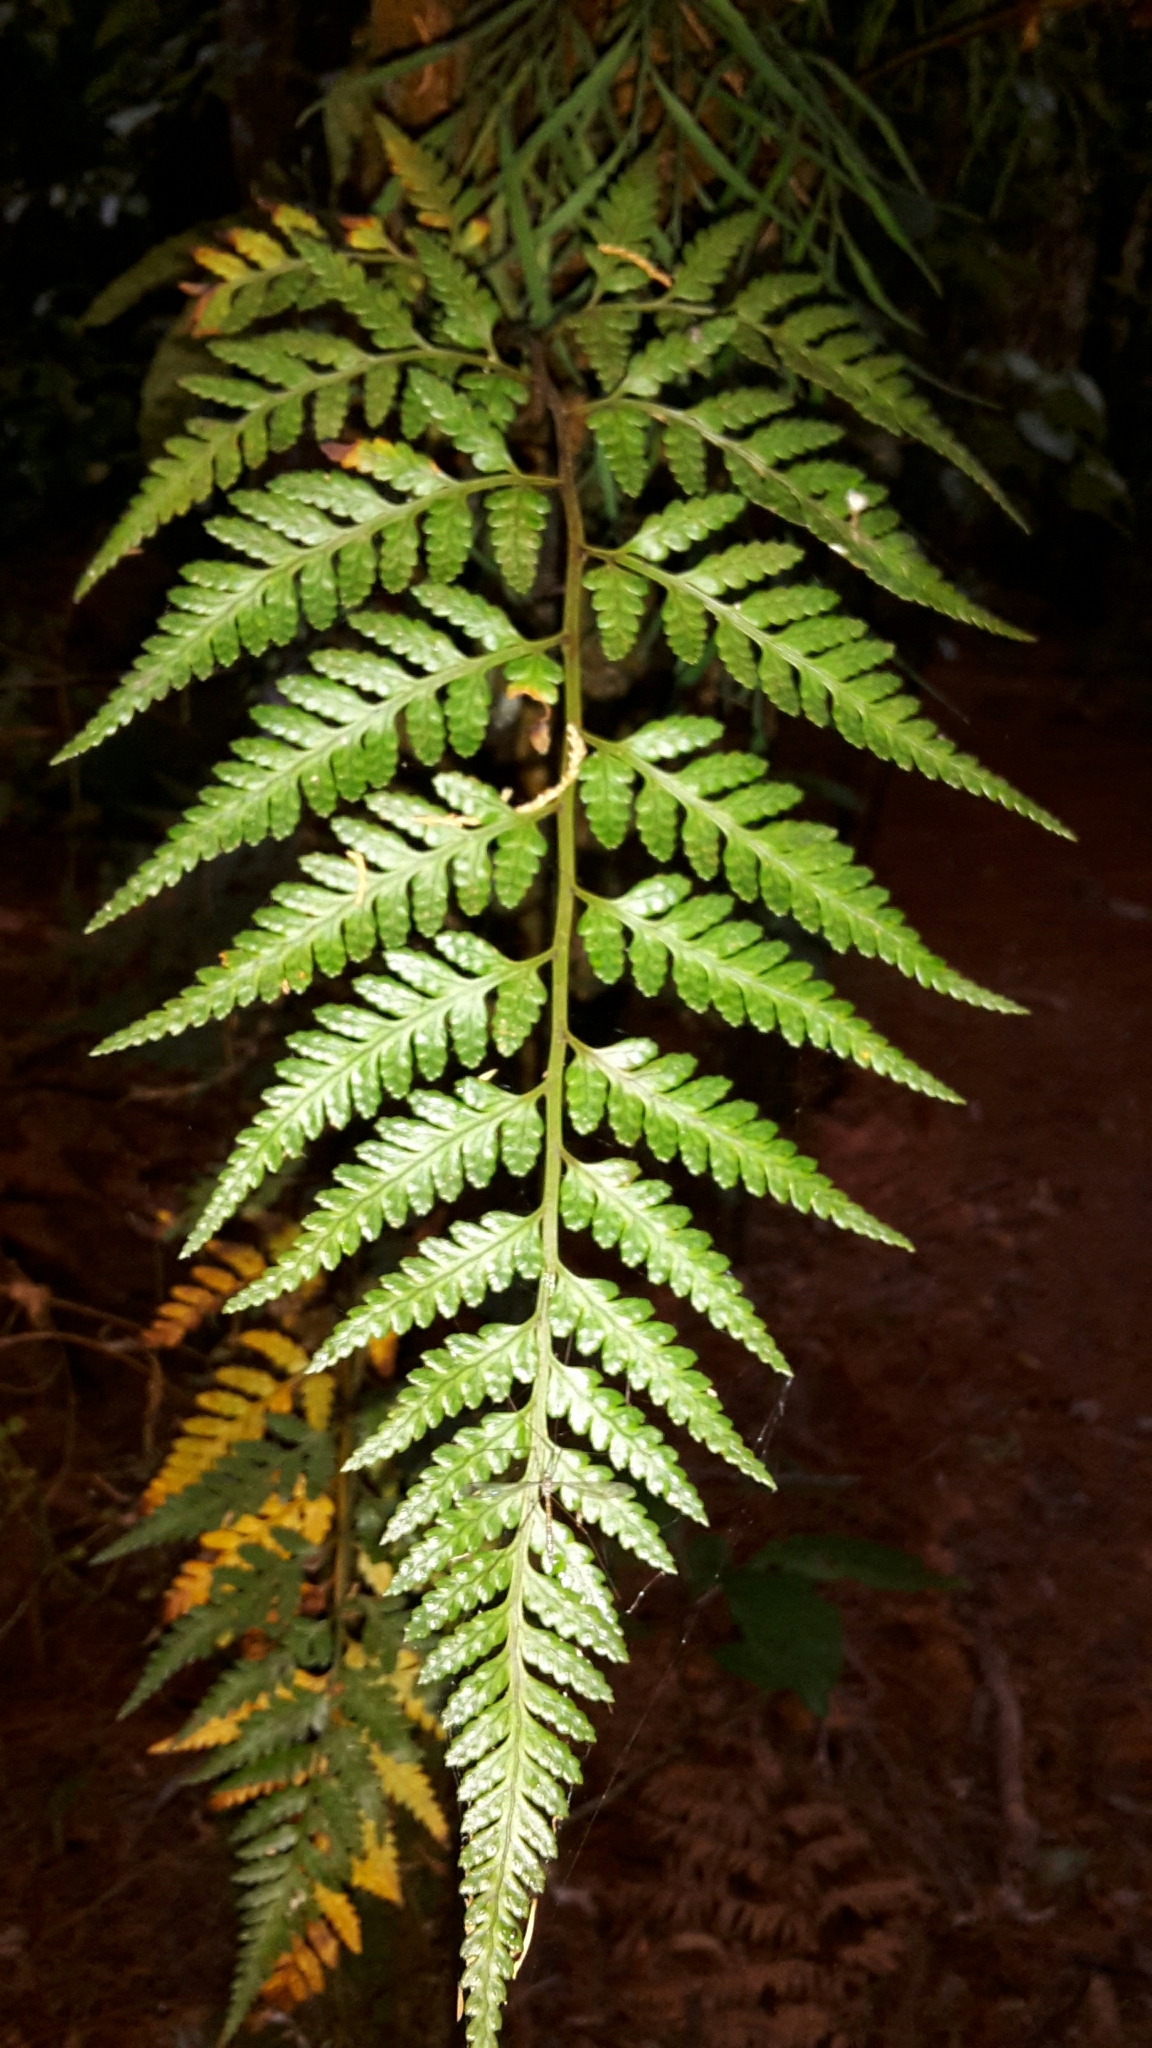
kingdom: Plantae
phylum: Tracheophyta
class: Polypodiopsida
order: Polypodiales
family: Dryopteridaceae
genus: Rumohra
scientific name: Rumohra adiantiformis
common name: Leather fern
